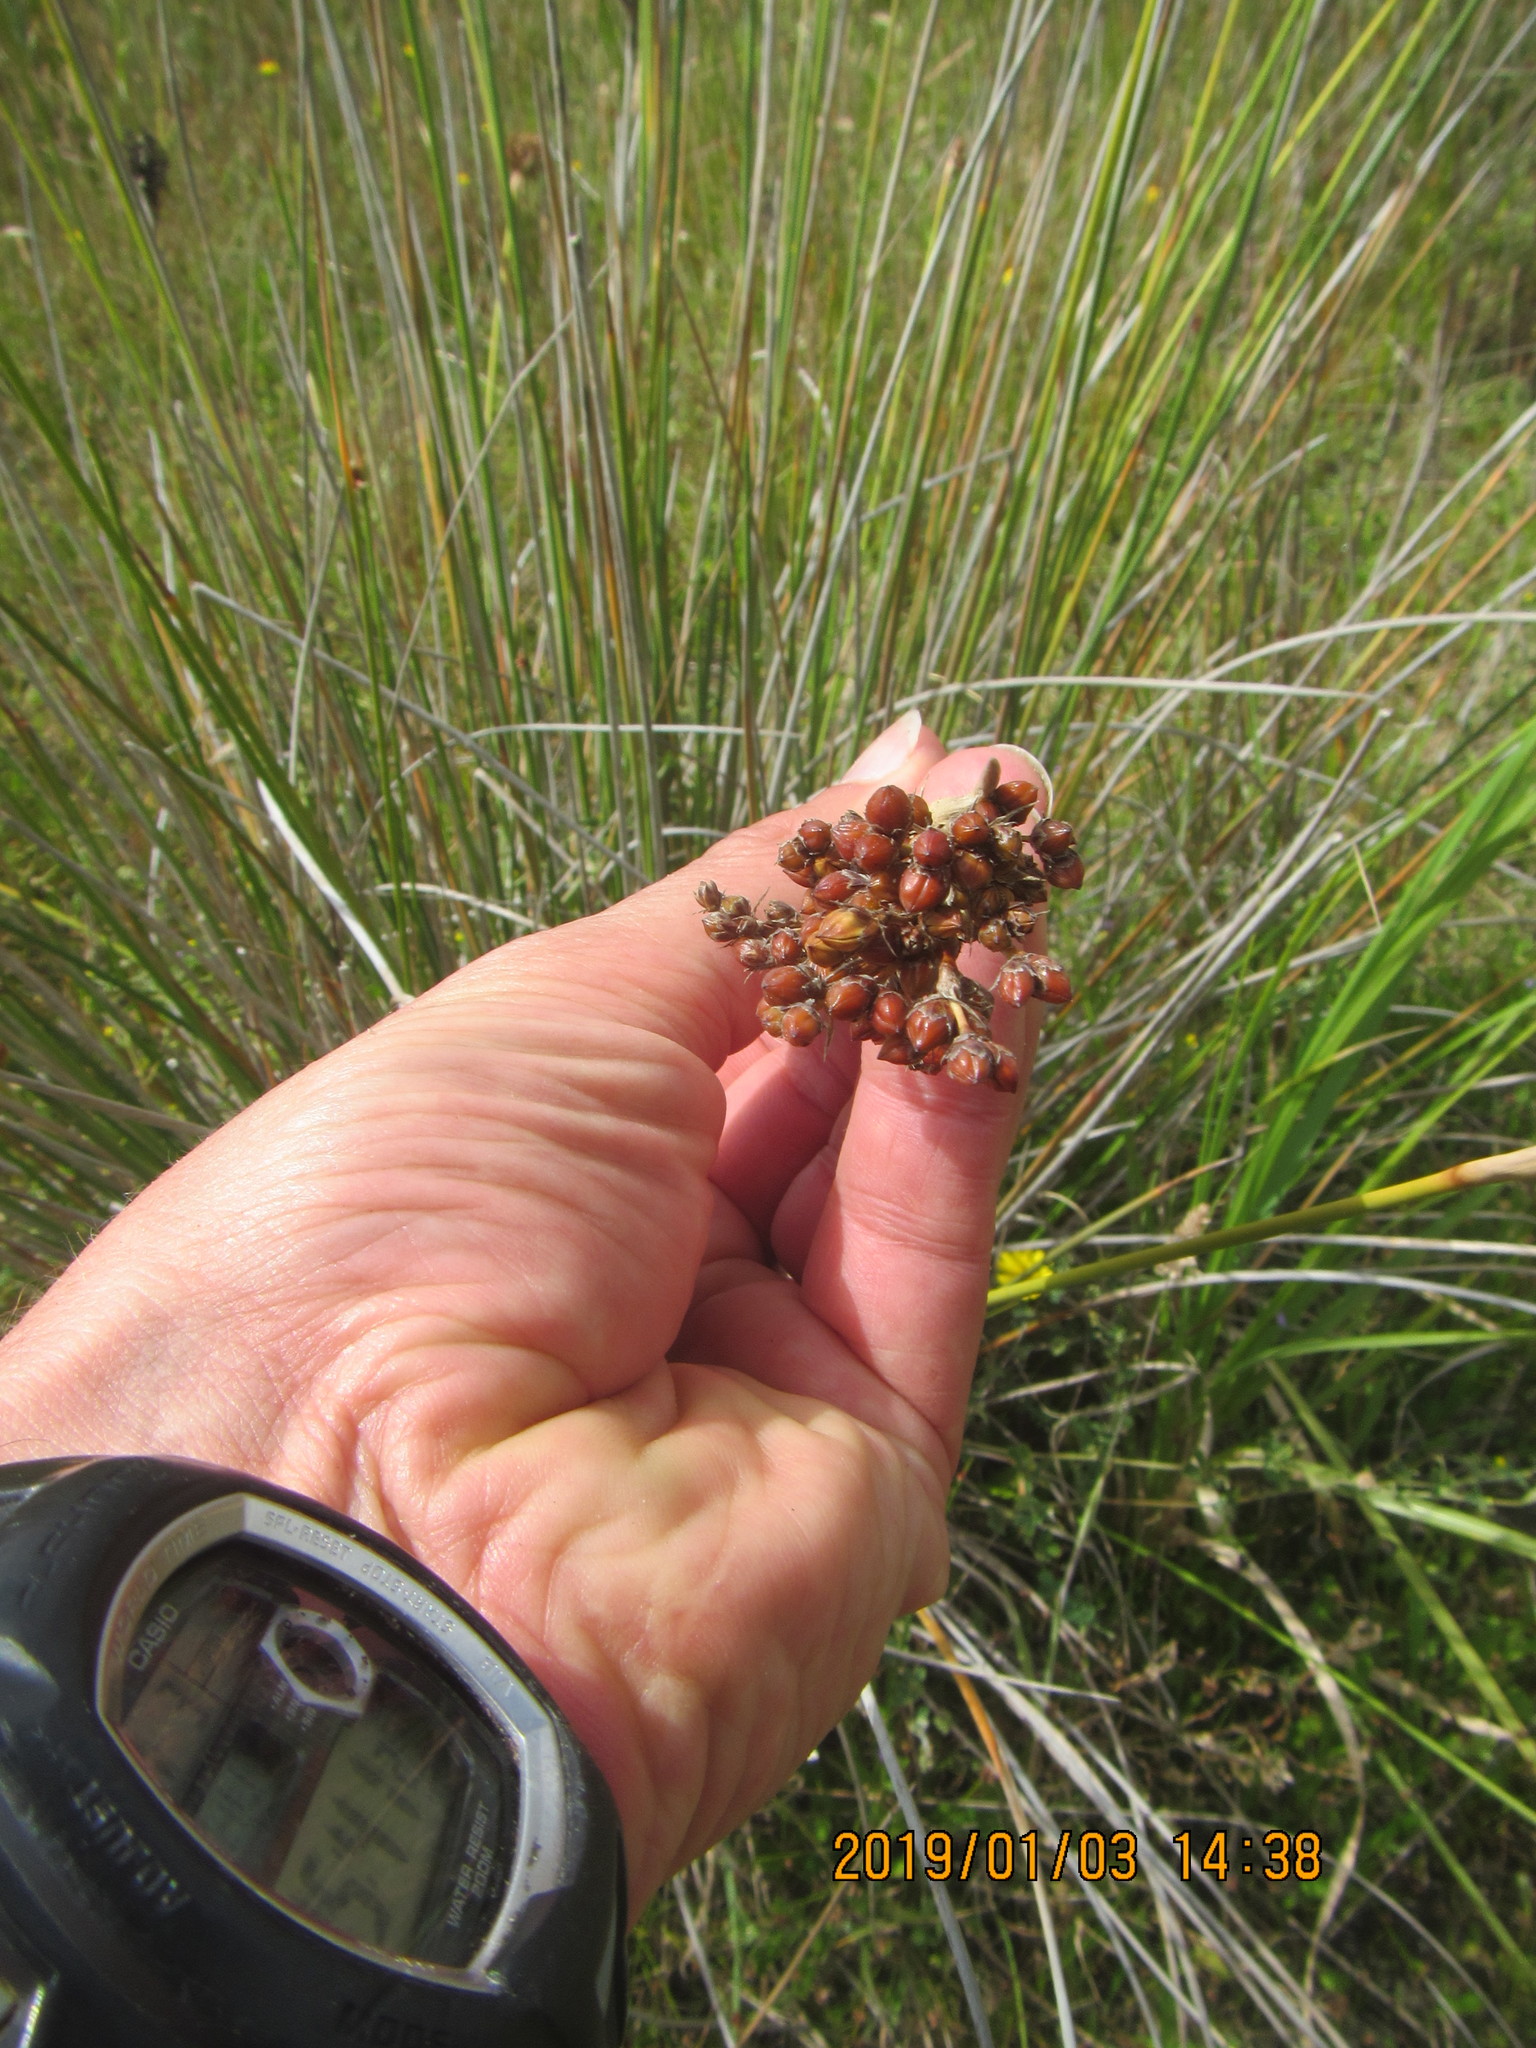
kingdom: Plantae
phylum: Tracheophyta
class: Liliopsida
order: Poales
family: Juncaceae
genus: Juncus
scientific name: Juncus acutus
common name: Sharp rush
